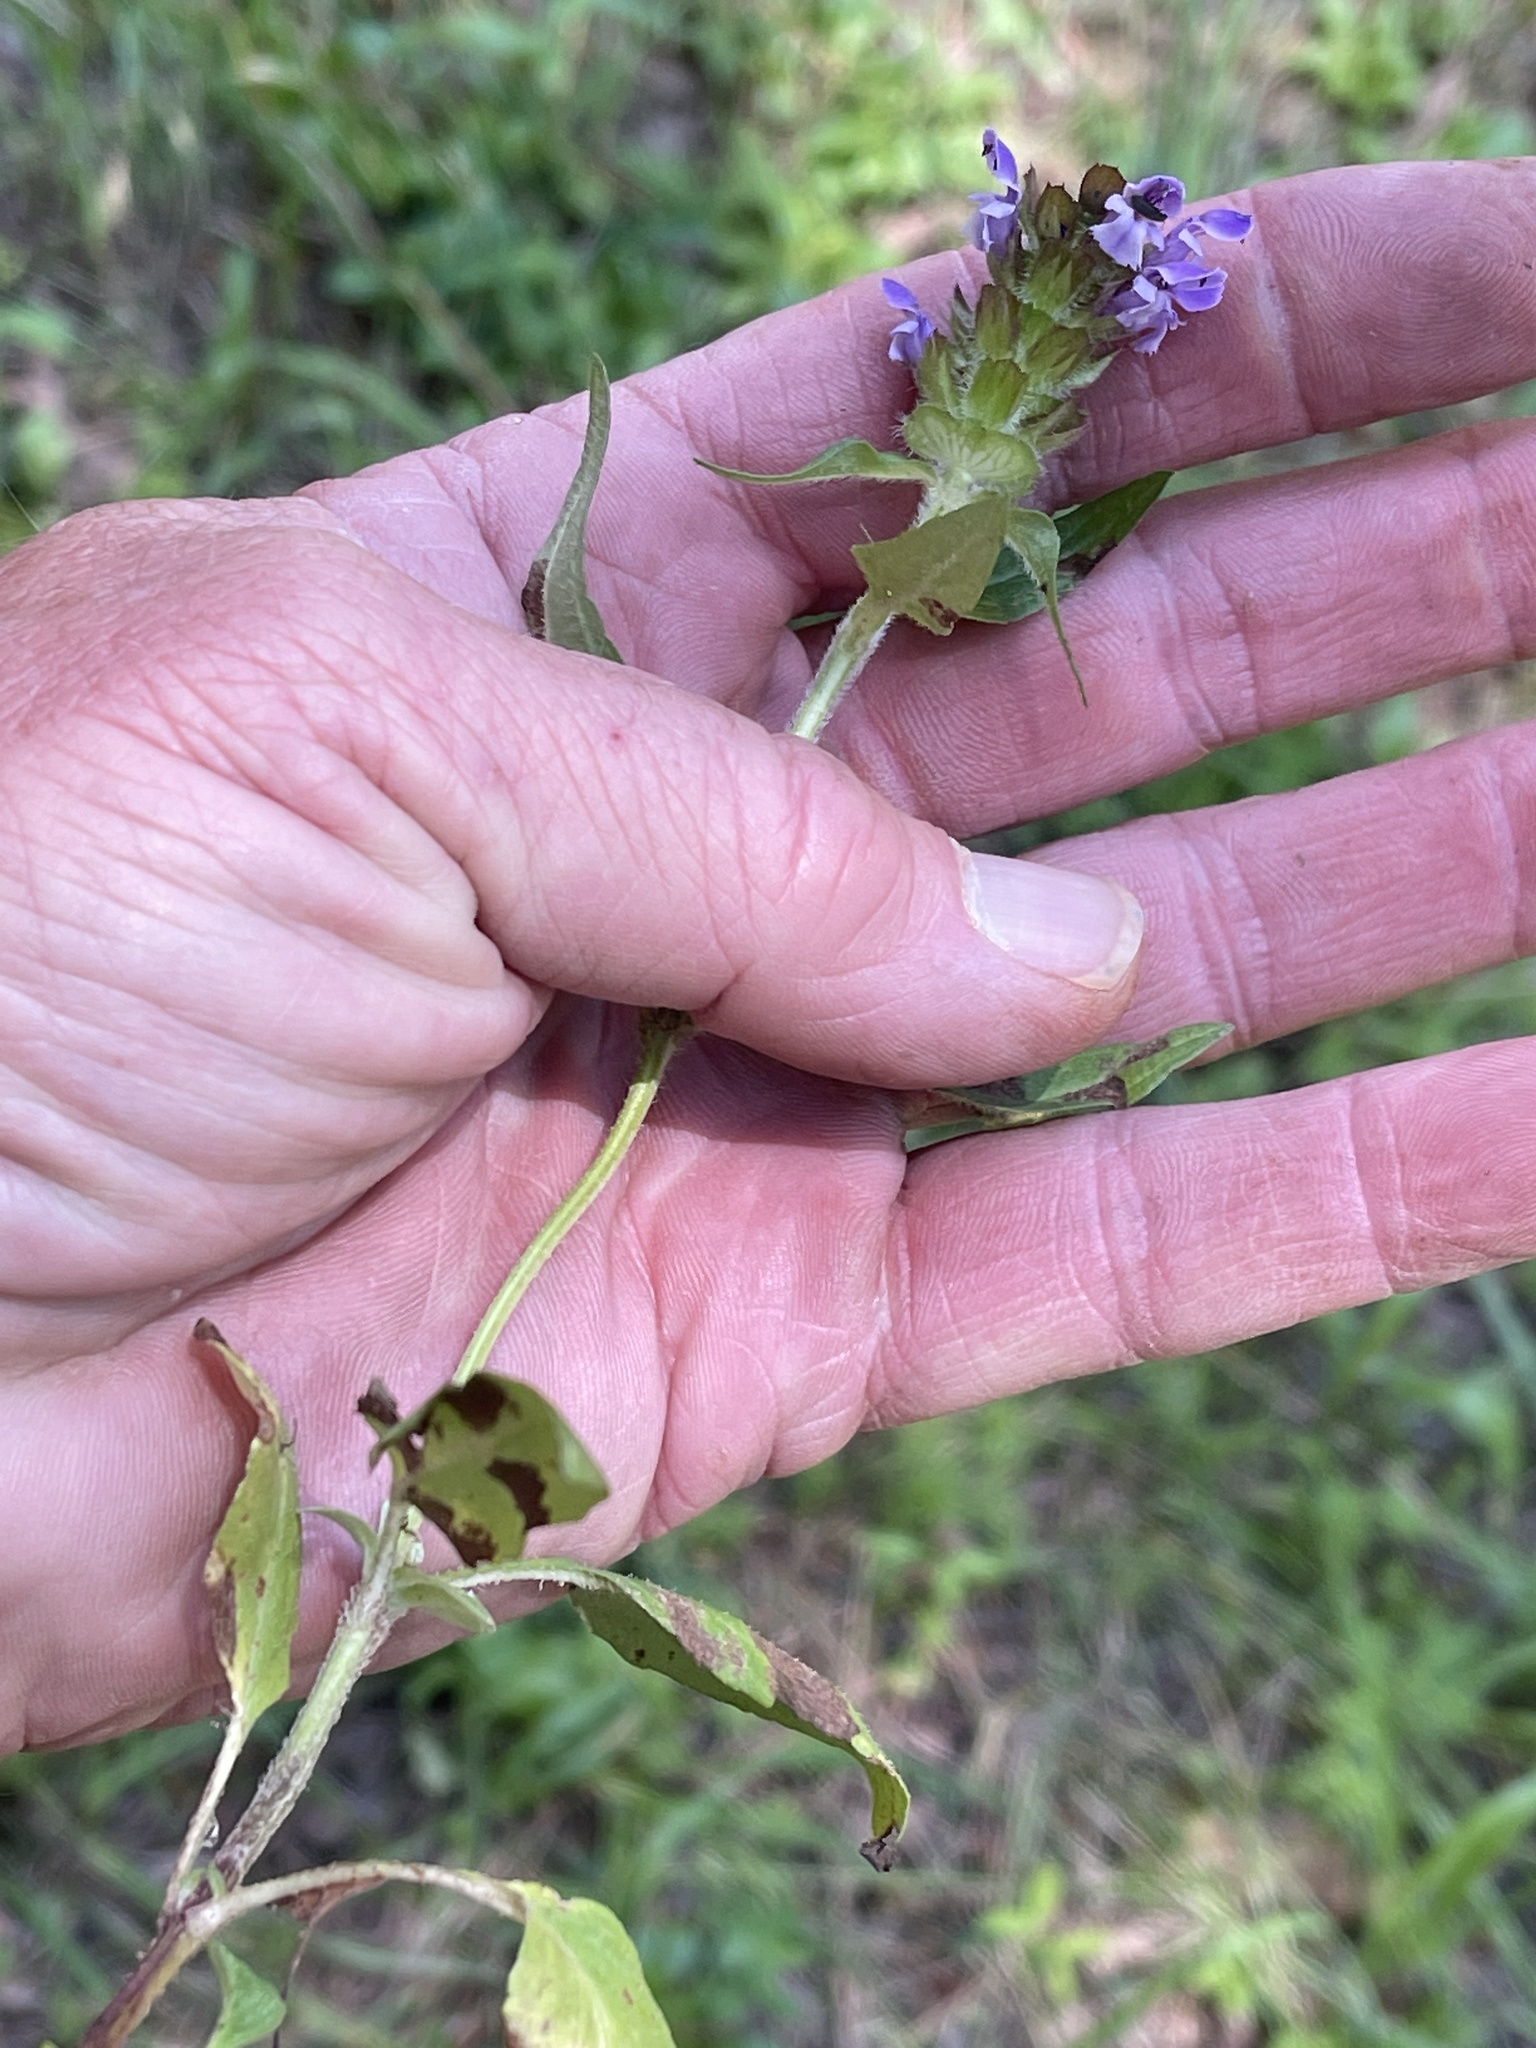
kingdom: Plantae
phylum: Tracheophyta
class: Magnoliopsida
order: Lamiales
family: Lamiaceae
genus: Prunella
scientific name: Prunella vulgaris
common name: Heal-all
